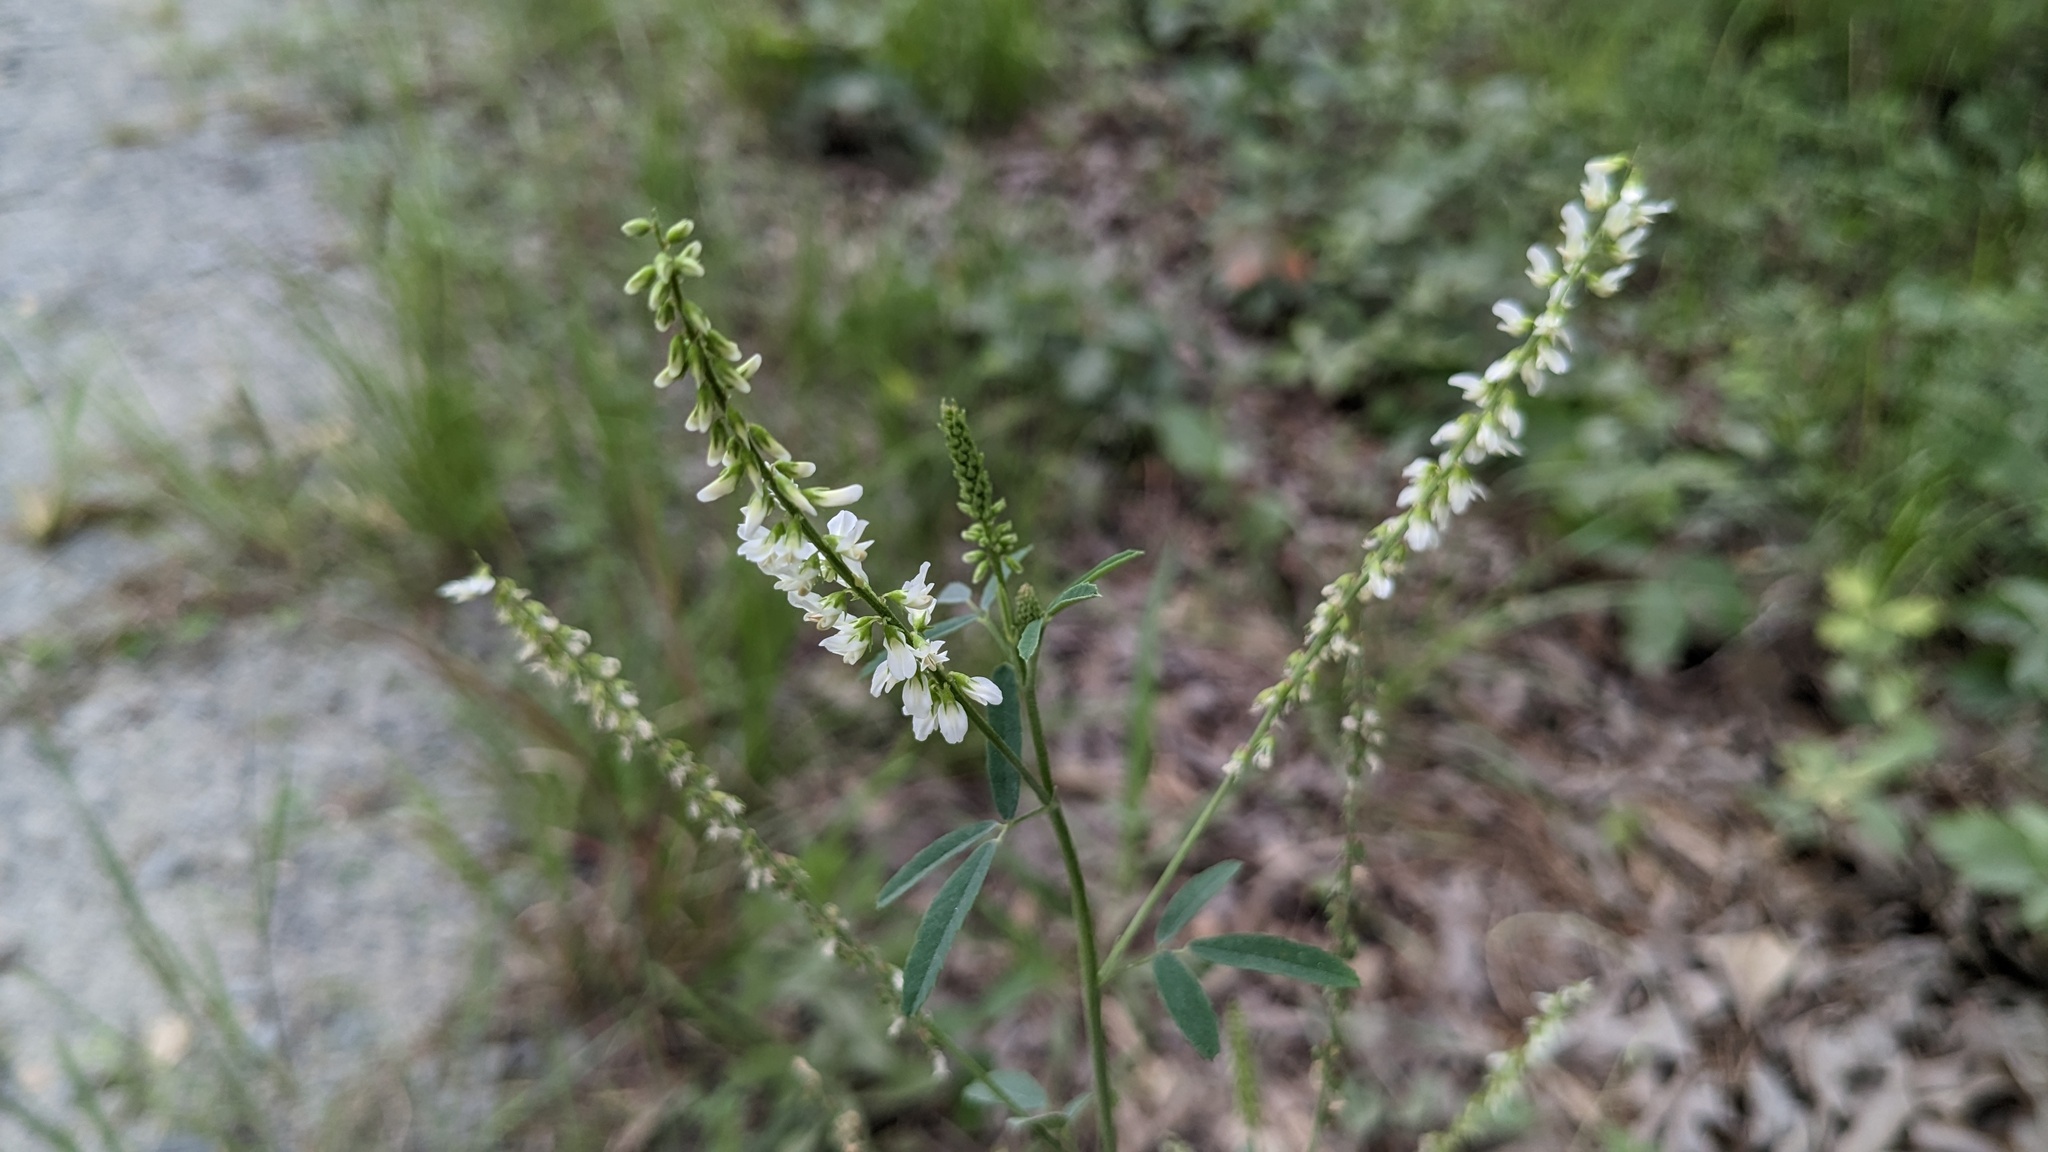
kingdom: Plantae
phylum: Tracheophyta
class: Magnoliopsida
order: Fabales
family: Fabaceae
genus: Melilotus
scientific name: Melilotus albus
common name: White melilot
